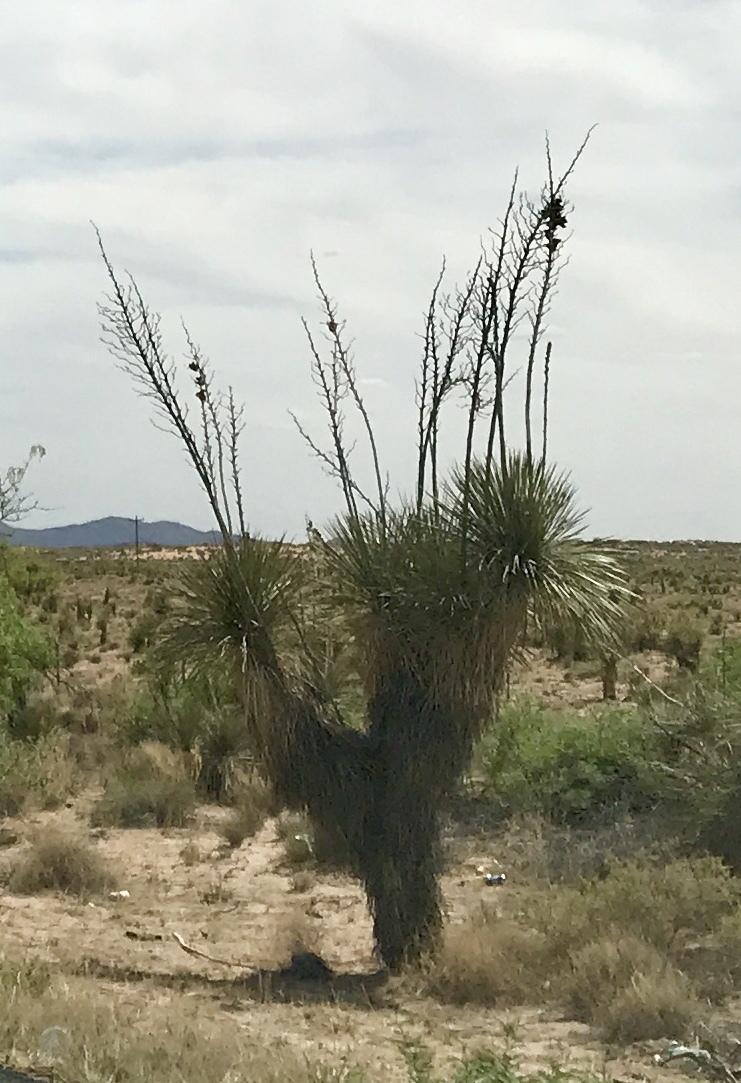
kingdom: Plantae
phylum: Tracheophyta
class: Liliopsida
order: Asparagales
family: Asparagaceae
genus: Yucca
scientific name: Yucca elata
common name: Palmella
